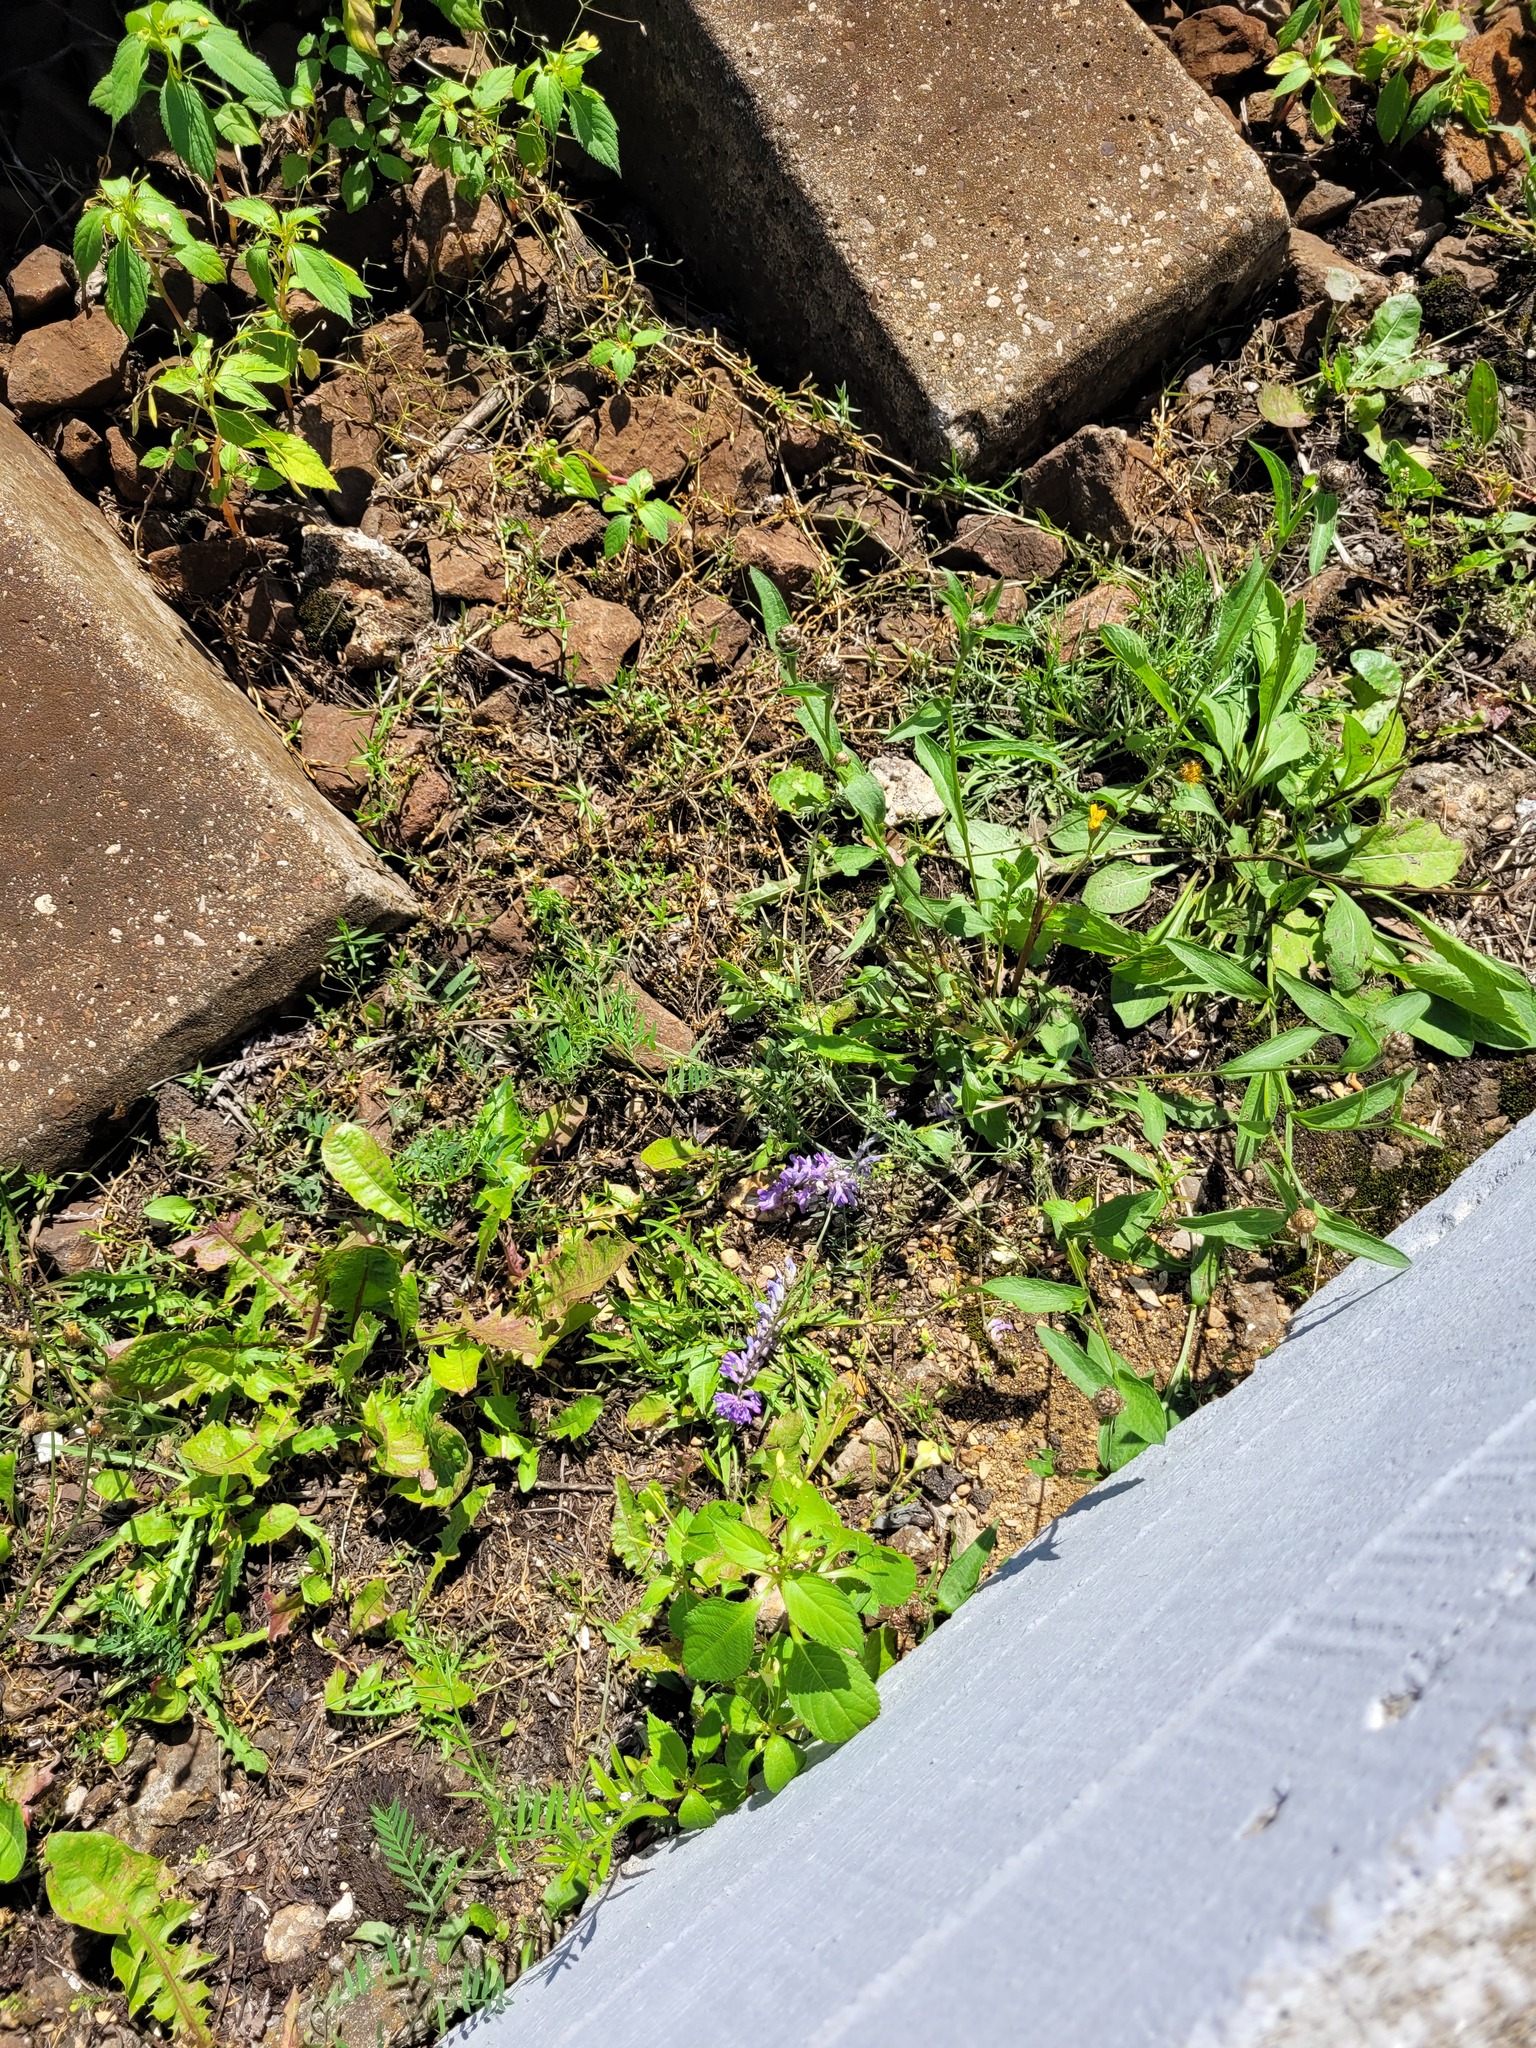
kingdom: Plantae
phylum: Tracheophyta
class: Magnoliopsida
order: Fabales
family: Fabaceae
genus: Vicia
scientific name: Vicia cracca
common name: Bird vetch
